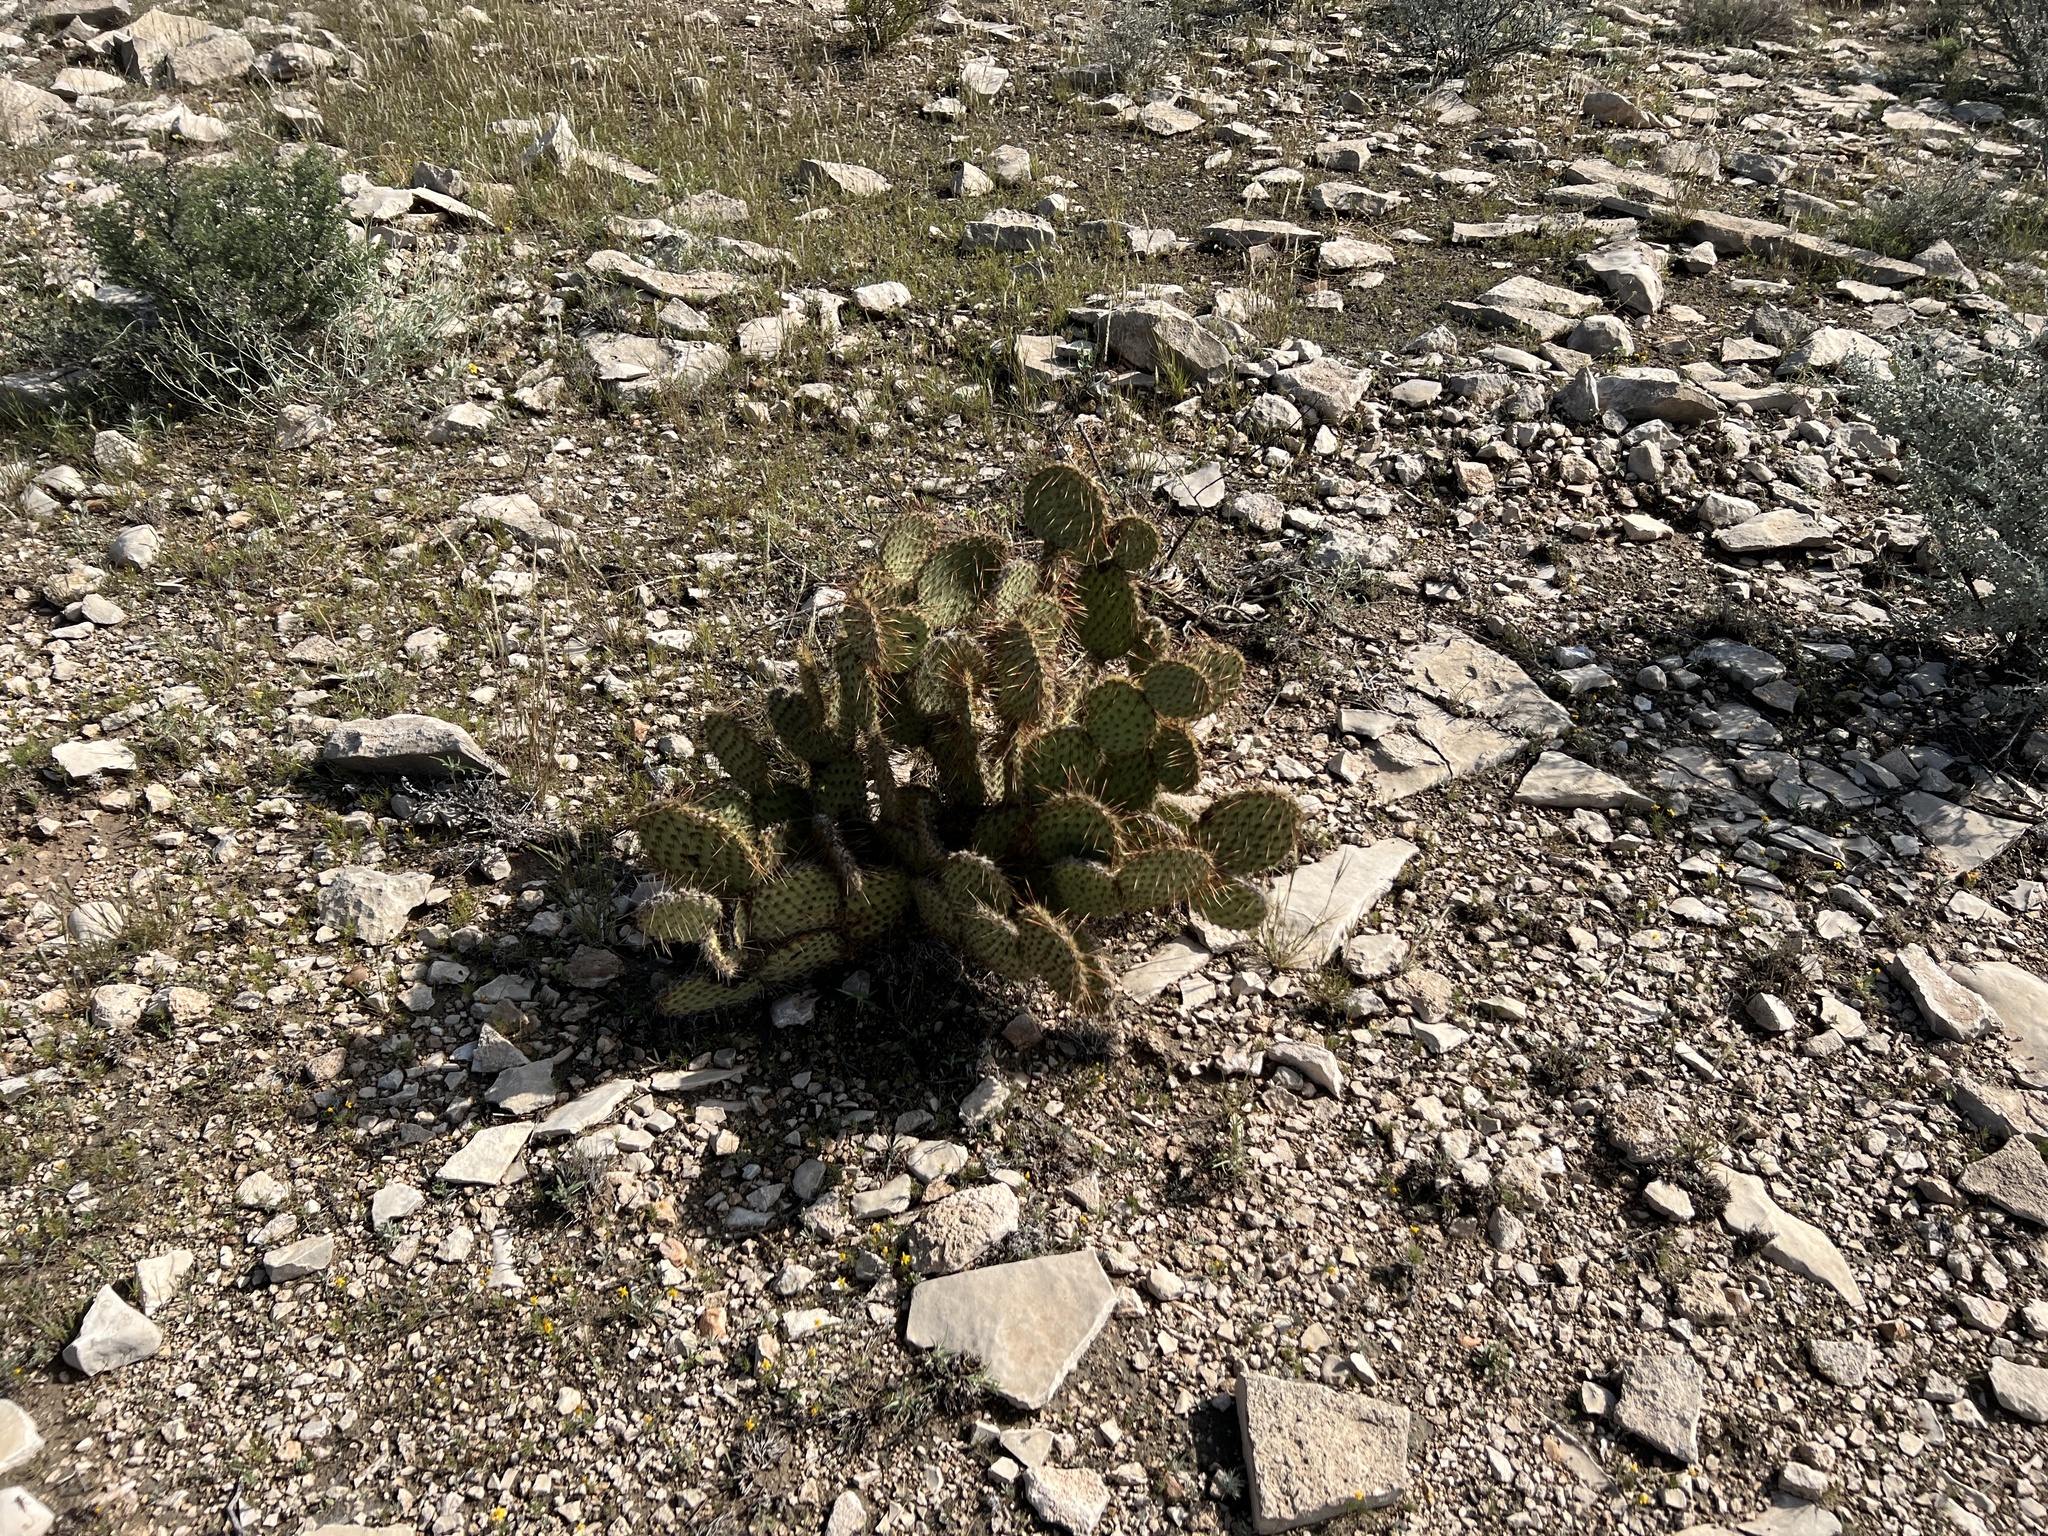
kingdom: Plantae
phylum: Tracheophyta
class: Magnoliopsida
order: Caryophyllales
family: Cactaceae
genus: Opuntia
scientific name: Opuntia chlorotica
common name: Dollar-joint prickly-pear
